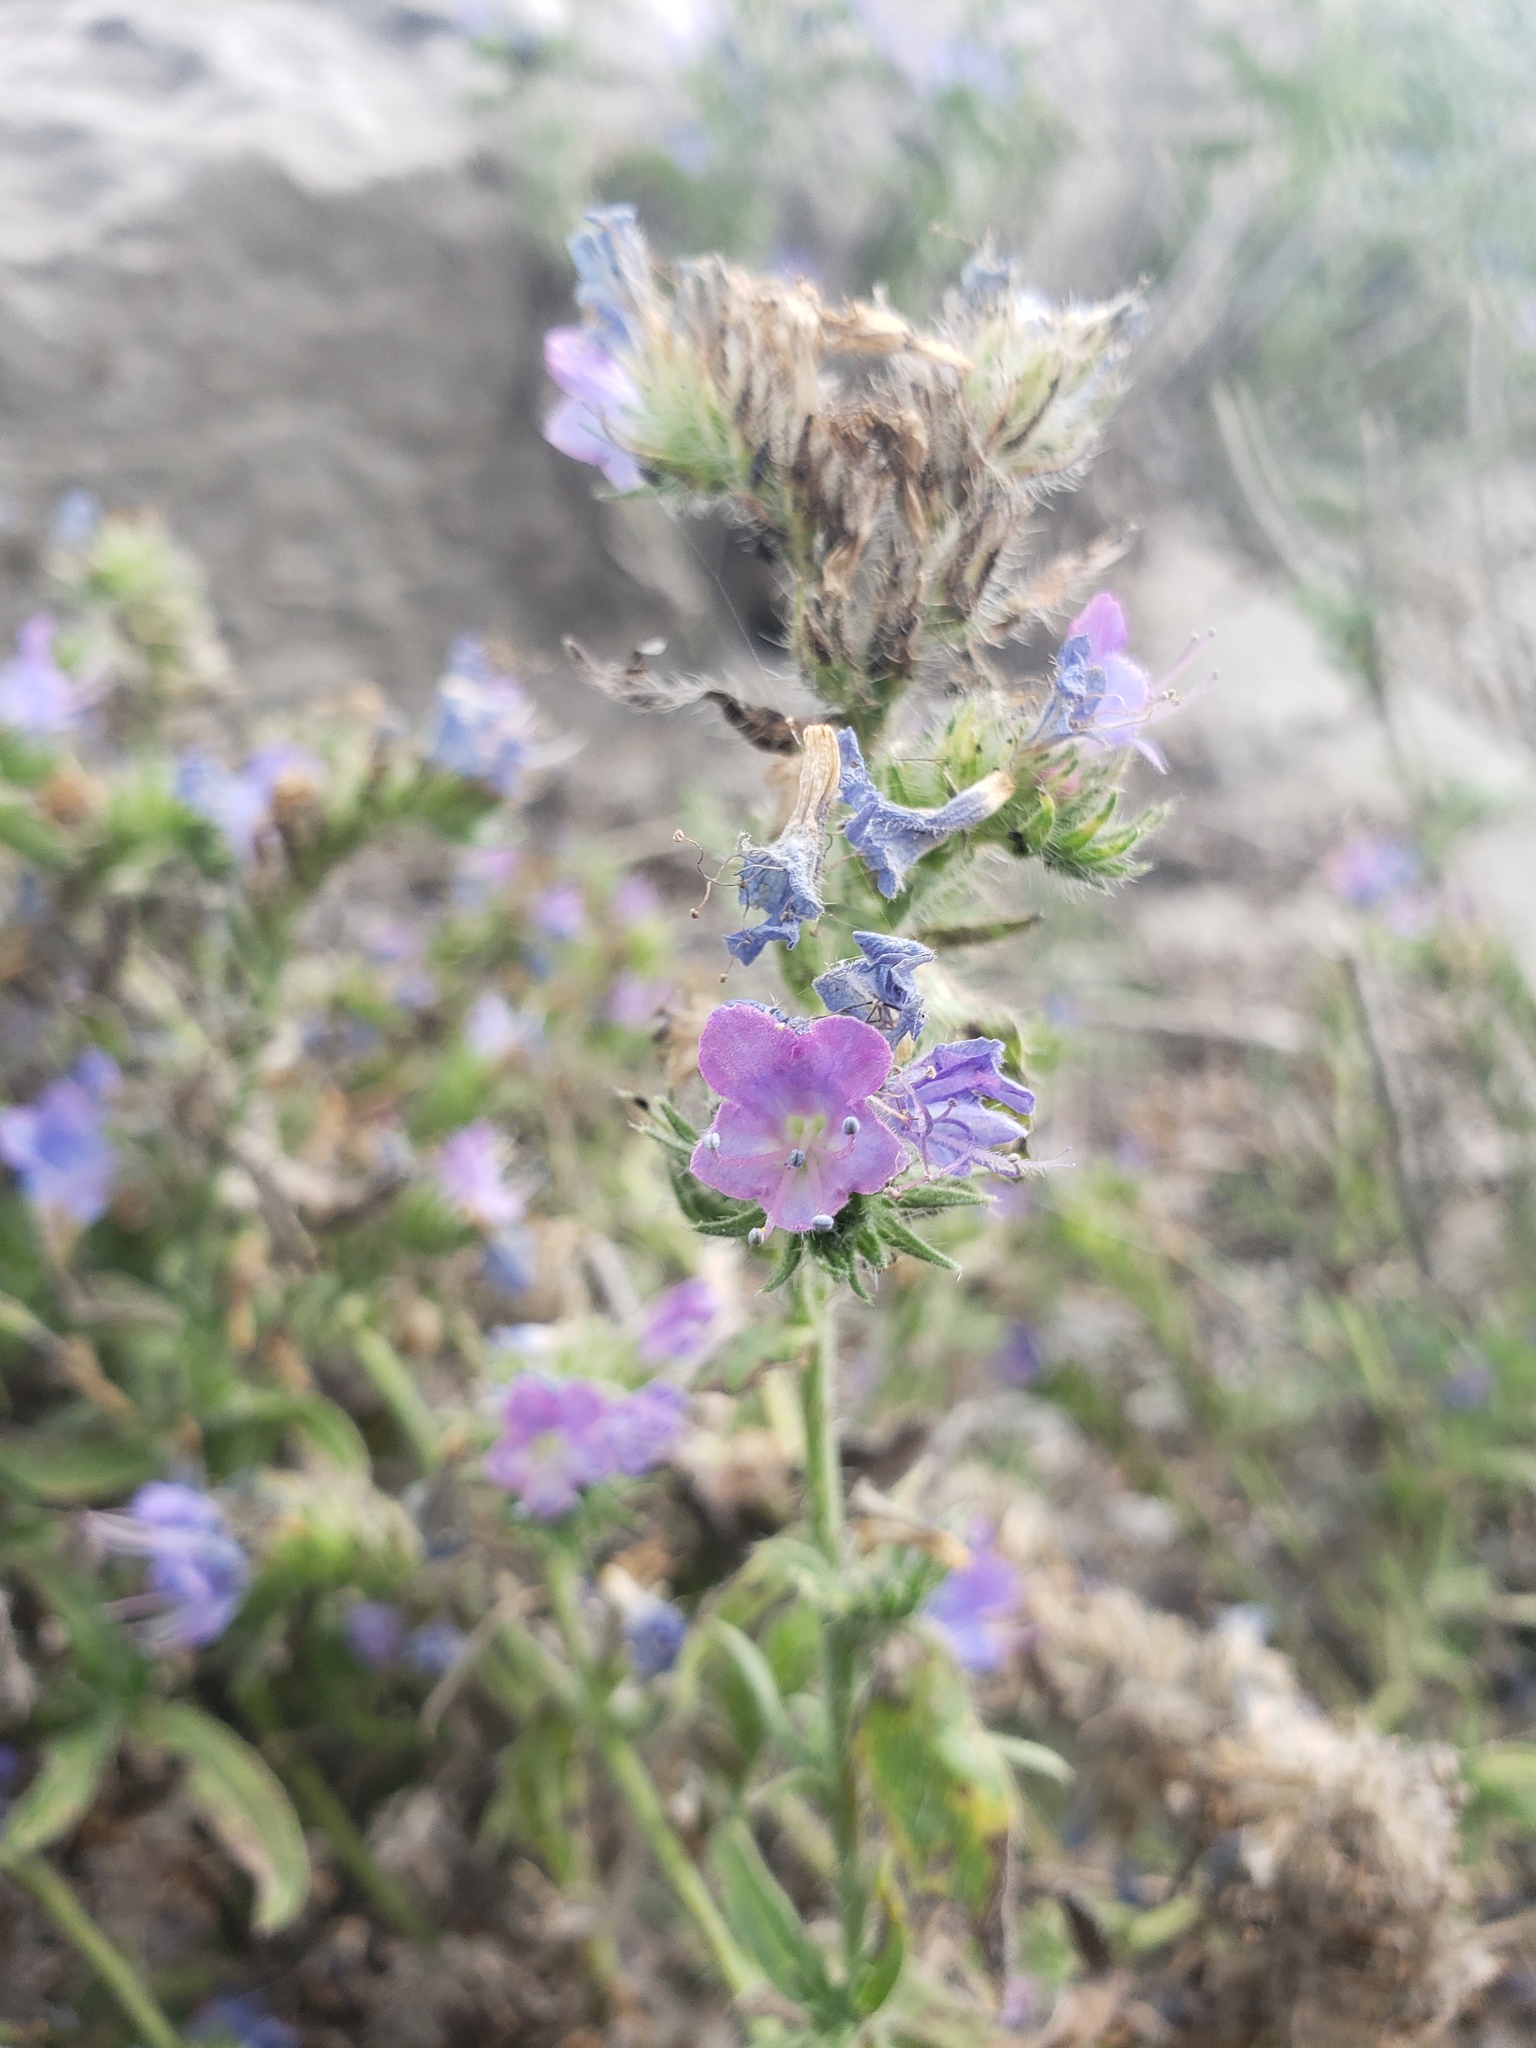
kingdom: Plantae
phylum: Tracheophyta
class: Magnoliopsida
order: Boraginales
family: Boraginaceae
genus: Echium
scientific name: Echium vulgare
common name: Common viper's bugloss
